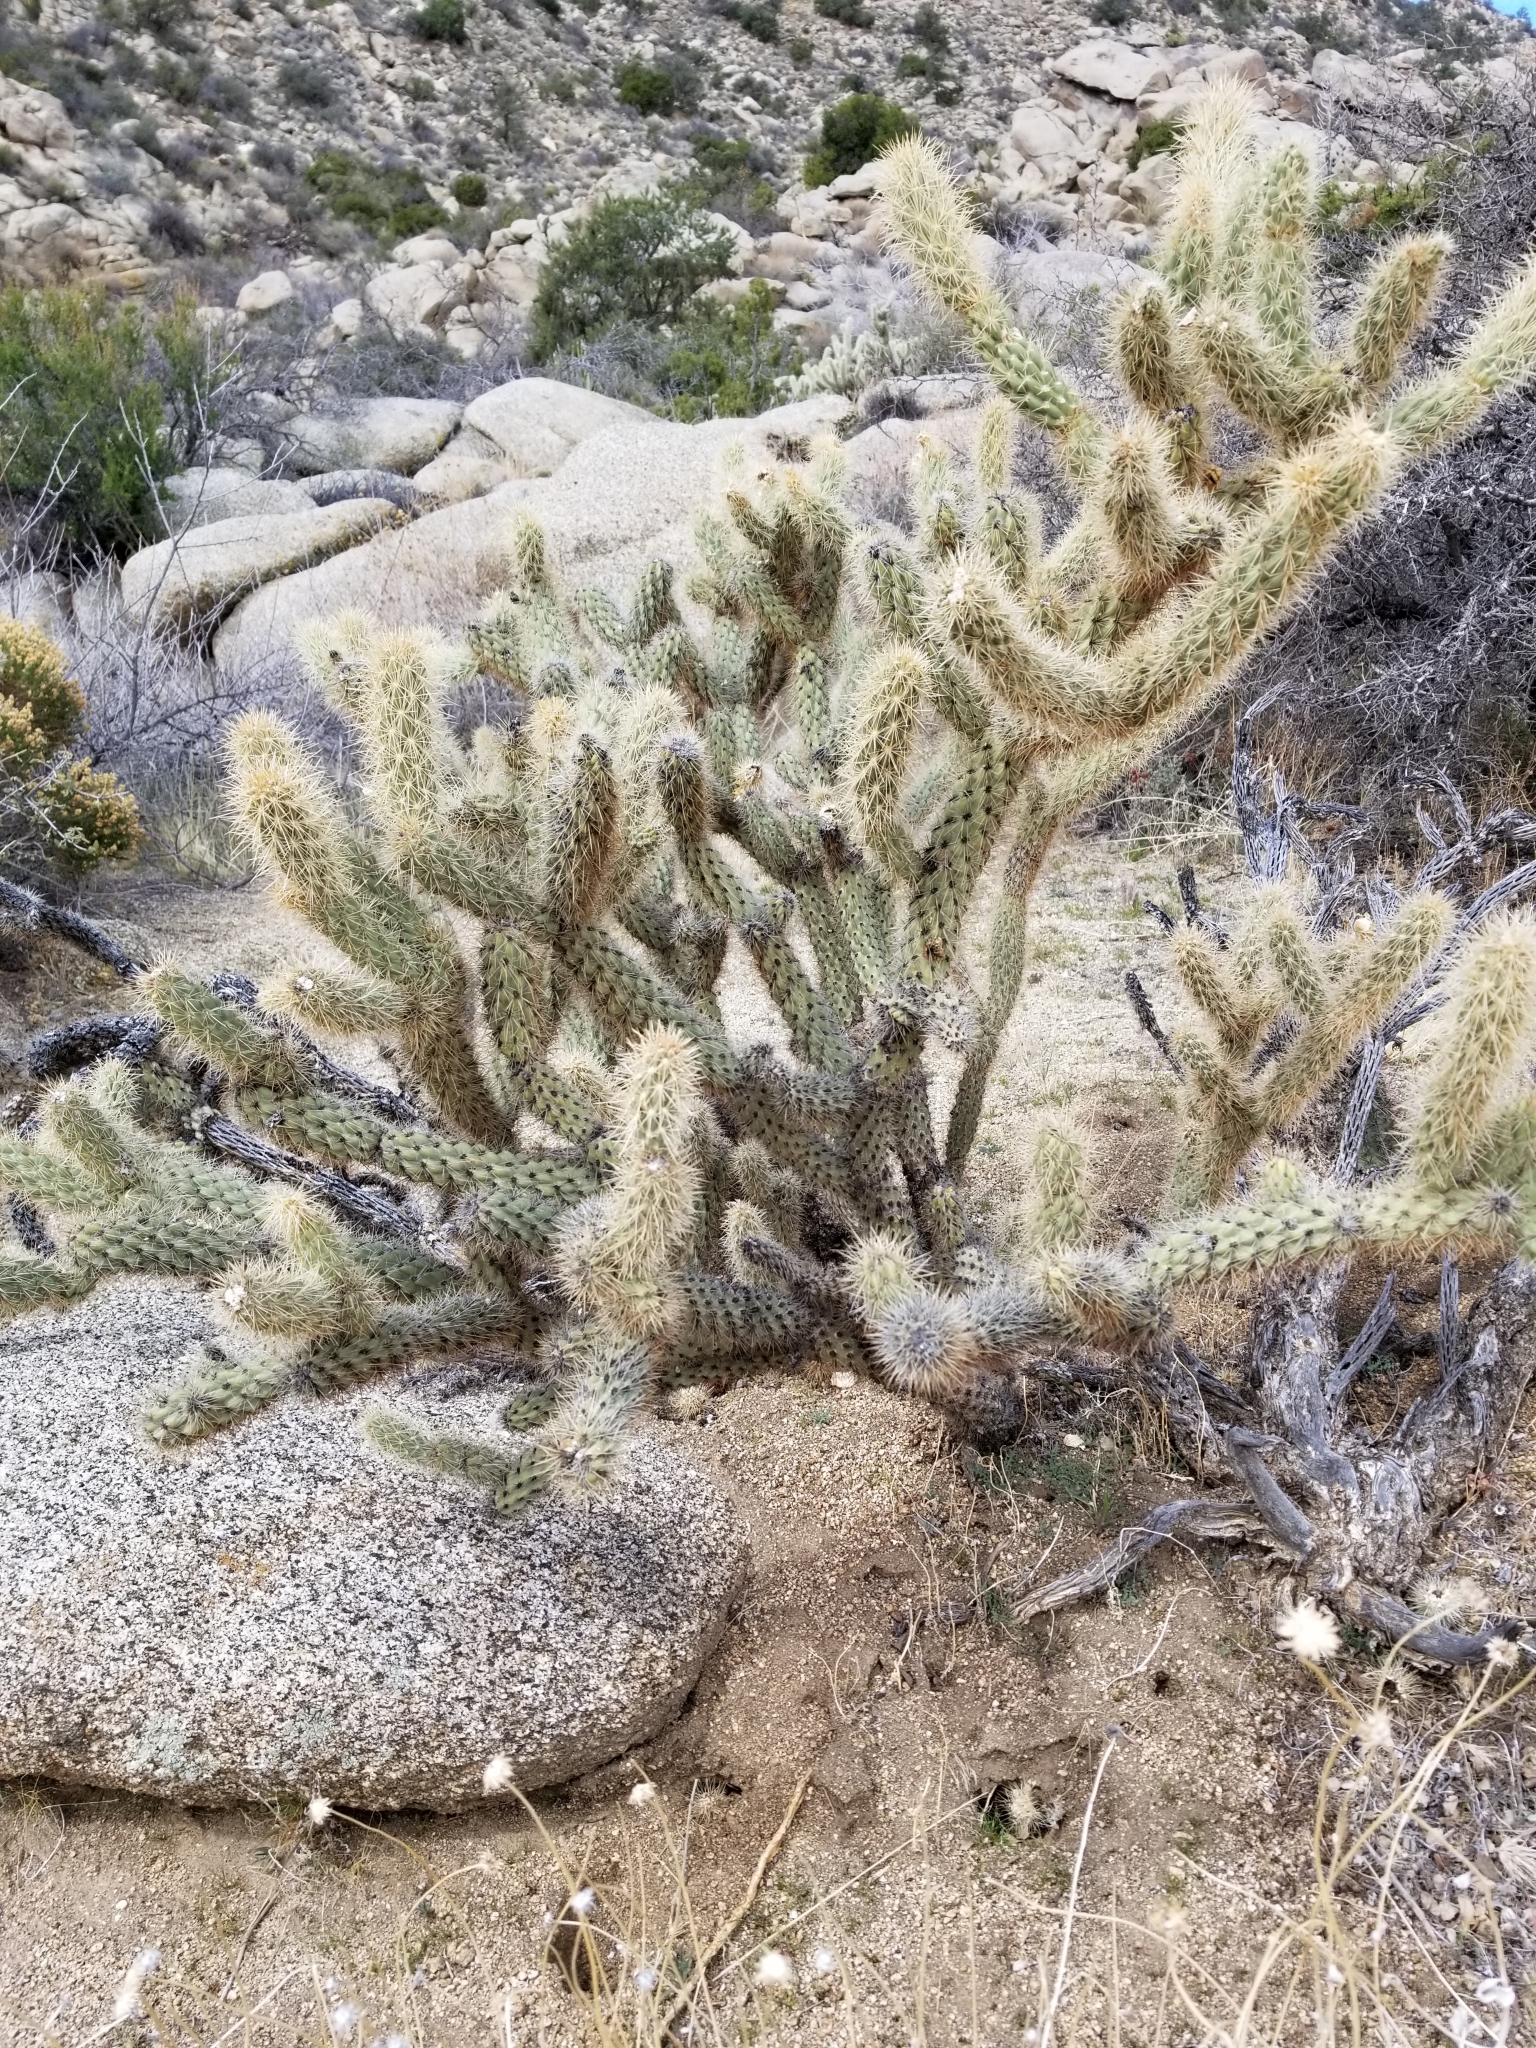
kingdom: Plantae
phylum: Tracheophyta
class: Magnoliopsida
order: Caryophyllales
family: Cactaceae
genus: Cylindropuntia
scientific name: Cylindropuntia ganderi
